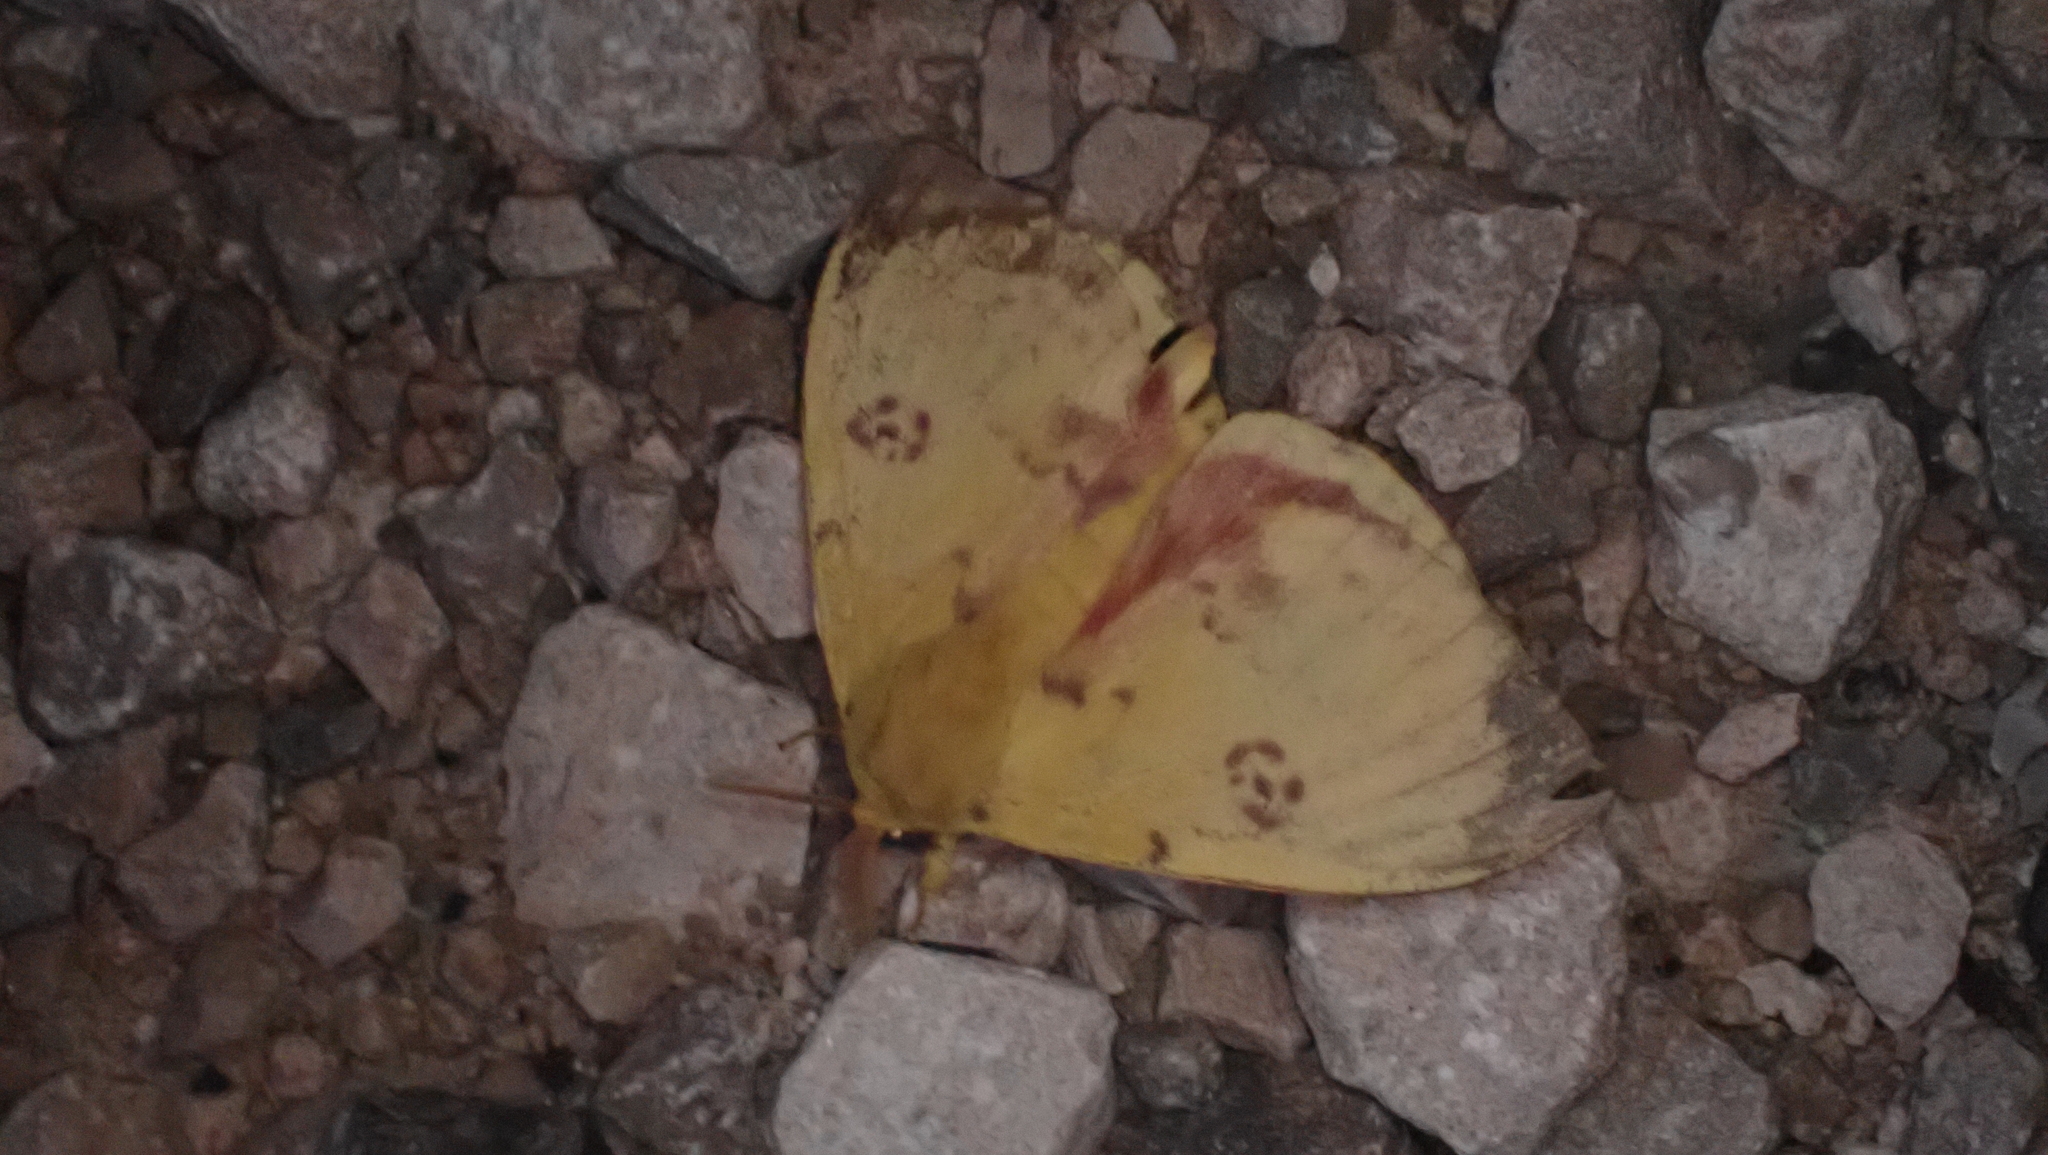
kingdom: Animalia
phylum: Arthropoda
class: Insecta
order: Lepidoptera
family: Saturniidae
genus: Automeris
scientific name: Automeris io
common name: Io moth
